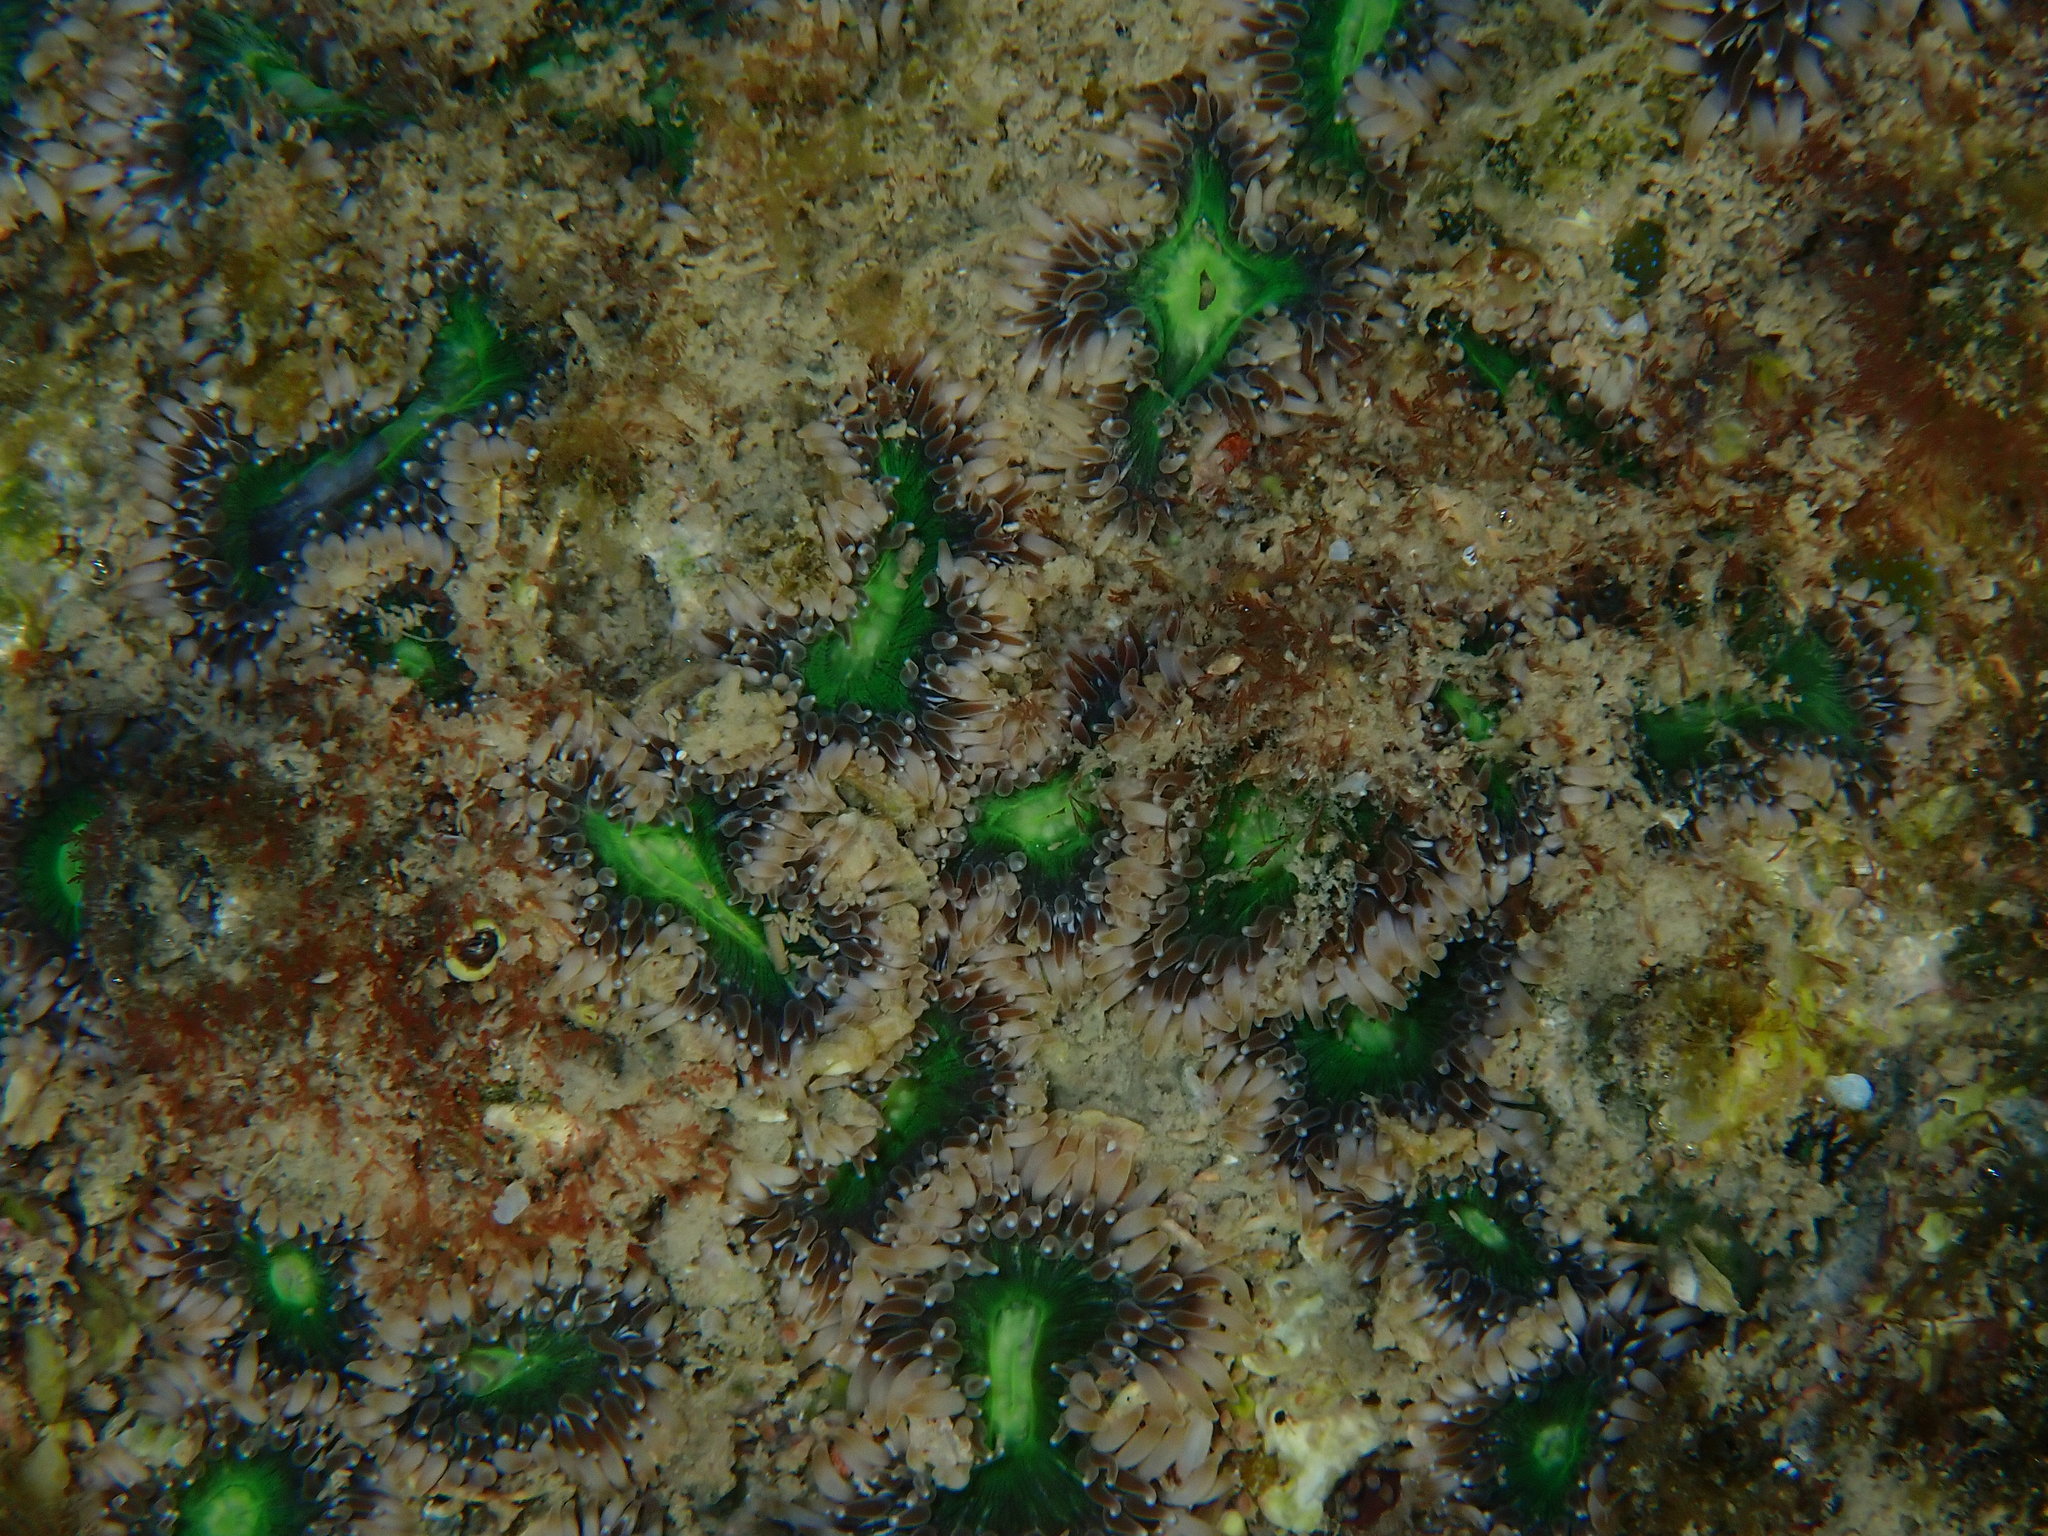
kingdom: Animalia
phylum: Cnidaria
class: Anthozoa
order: Actiniaria
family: Actiniidae
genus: Gyractis
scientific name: Gyractis sesere
